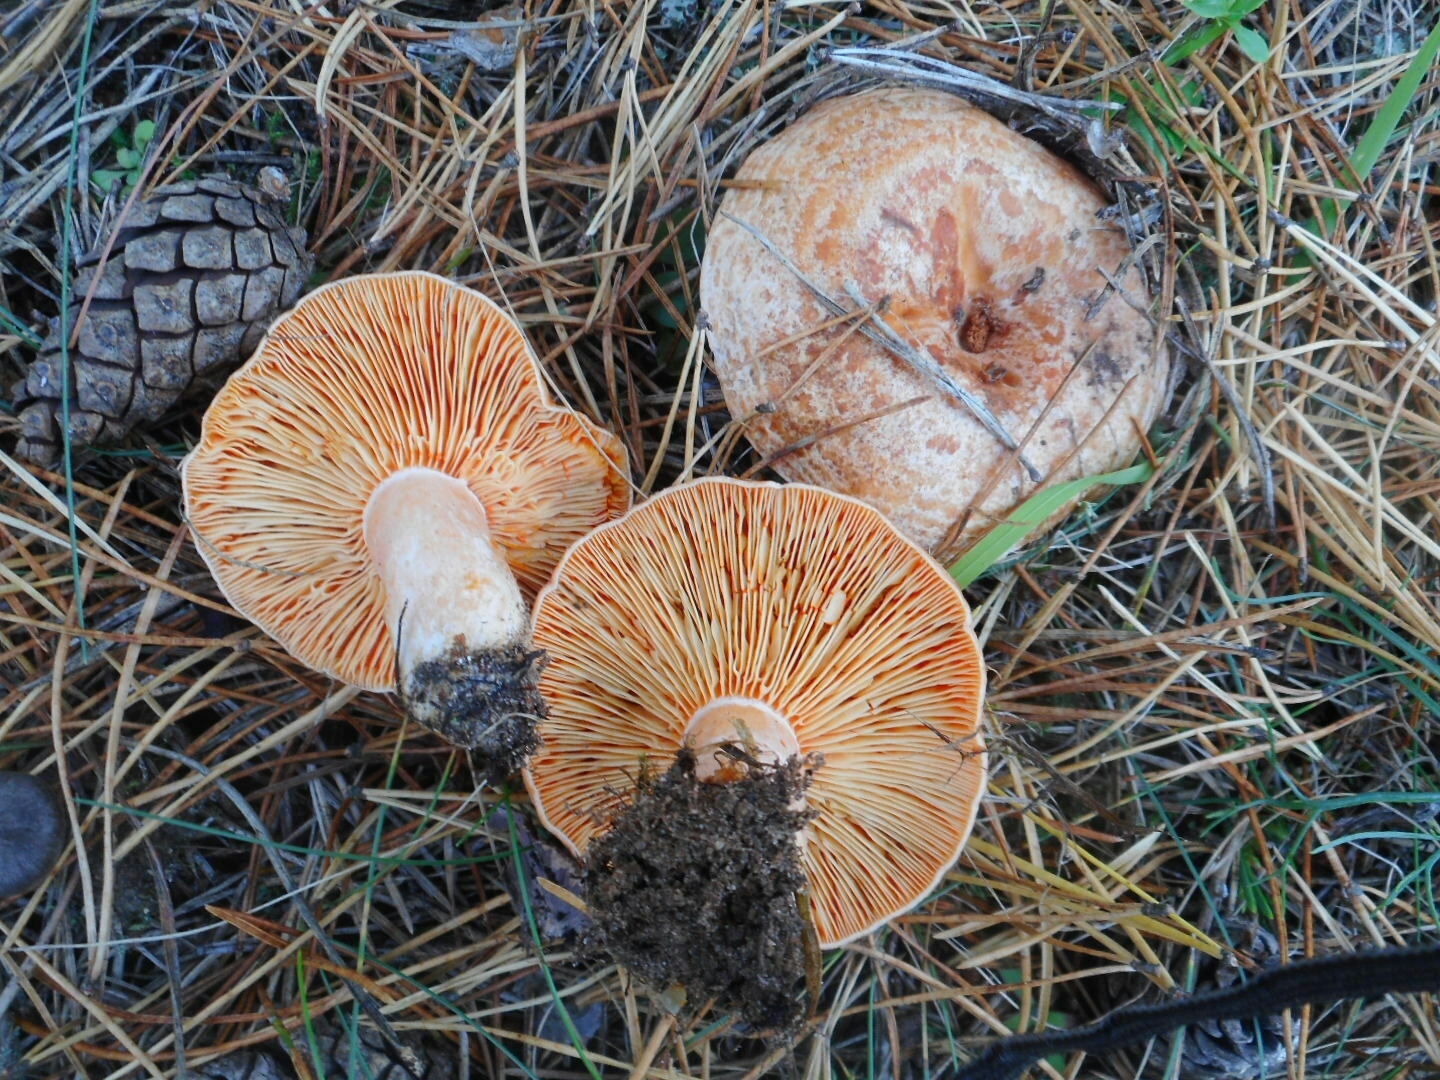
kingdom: Fungi
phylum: Basidiomycota
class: Agaricomycetes
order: Russulales
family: Russulaceae
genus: Lactarius
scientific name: Lactarius deliciosus
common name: Saffron milk-cap
